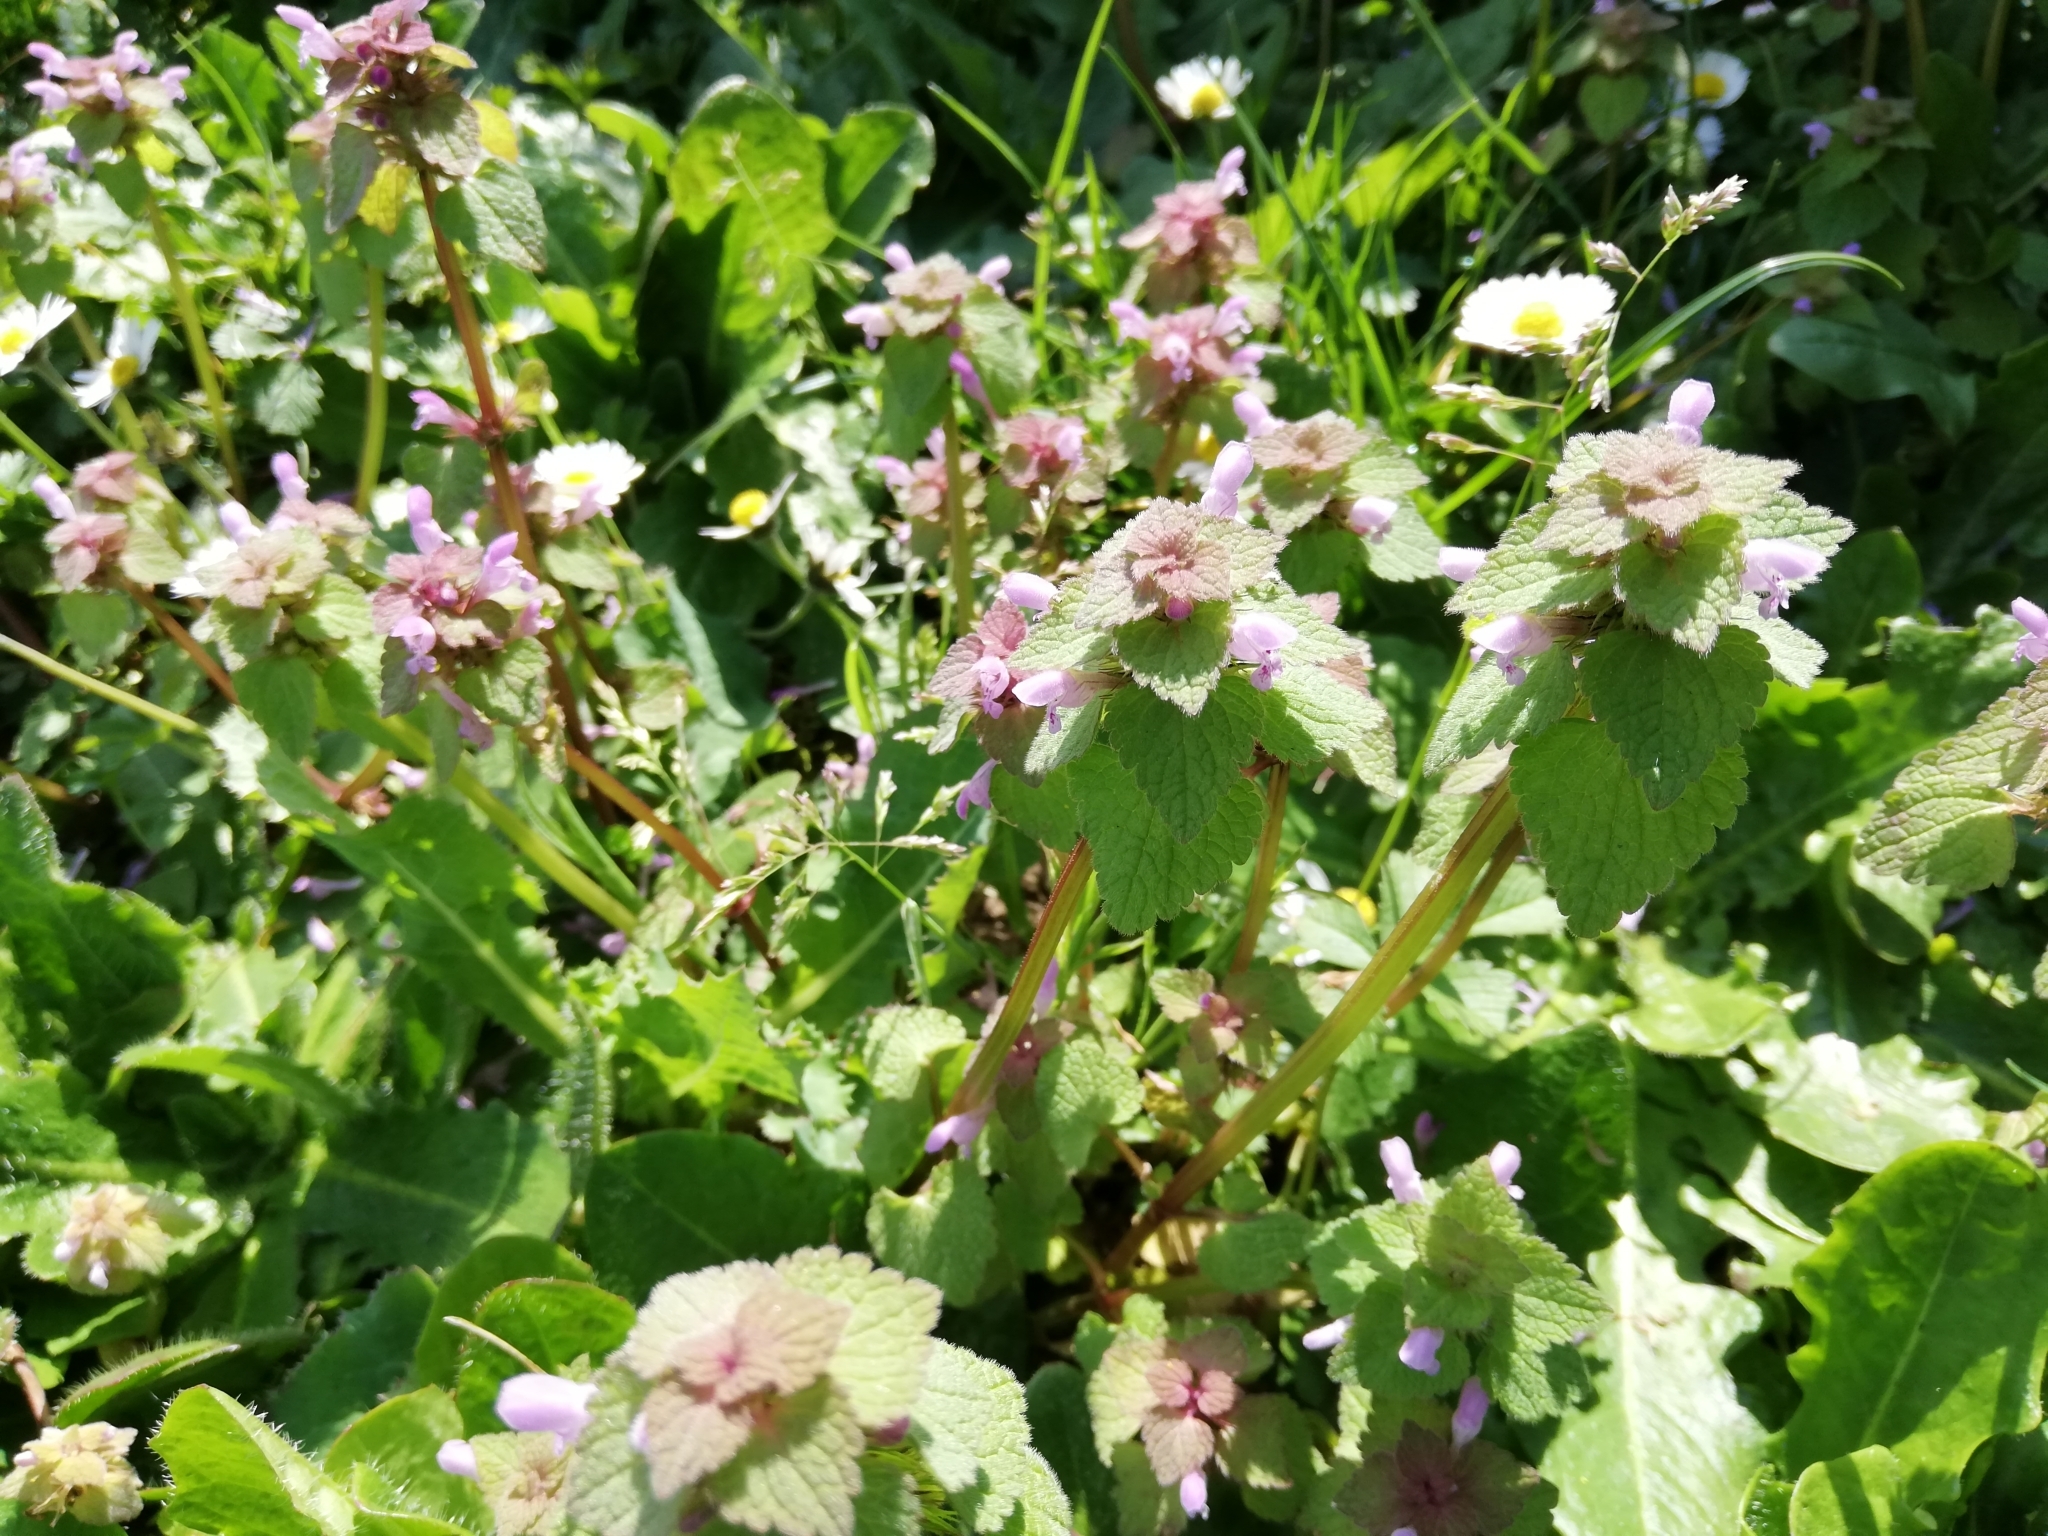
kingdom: Plantae
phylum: Tracheophyta
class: Magnoliopsida
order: Lamiales
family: Lamiaceae
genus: Lamium
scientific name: Lamium purpureum
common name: Red dead-nettle
